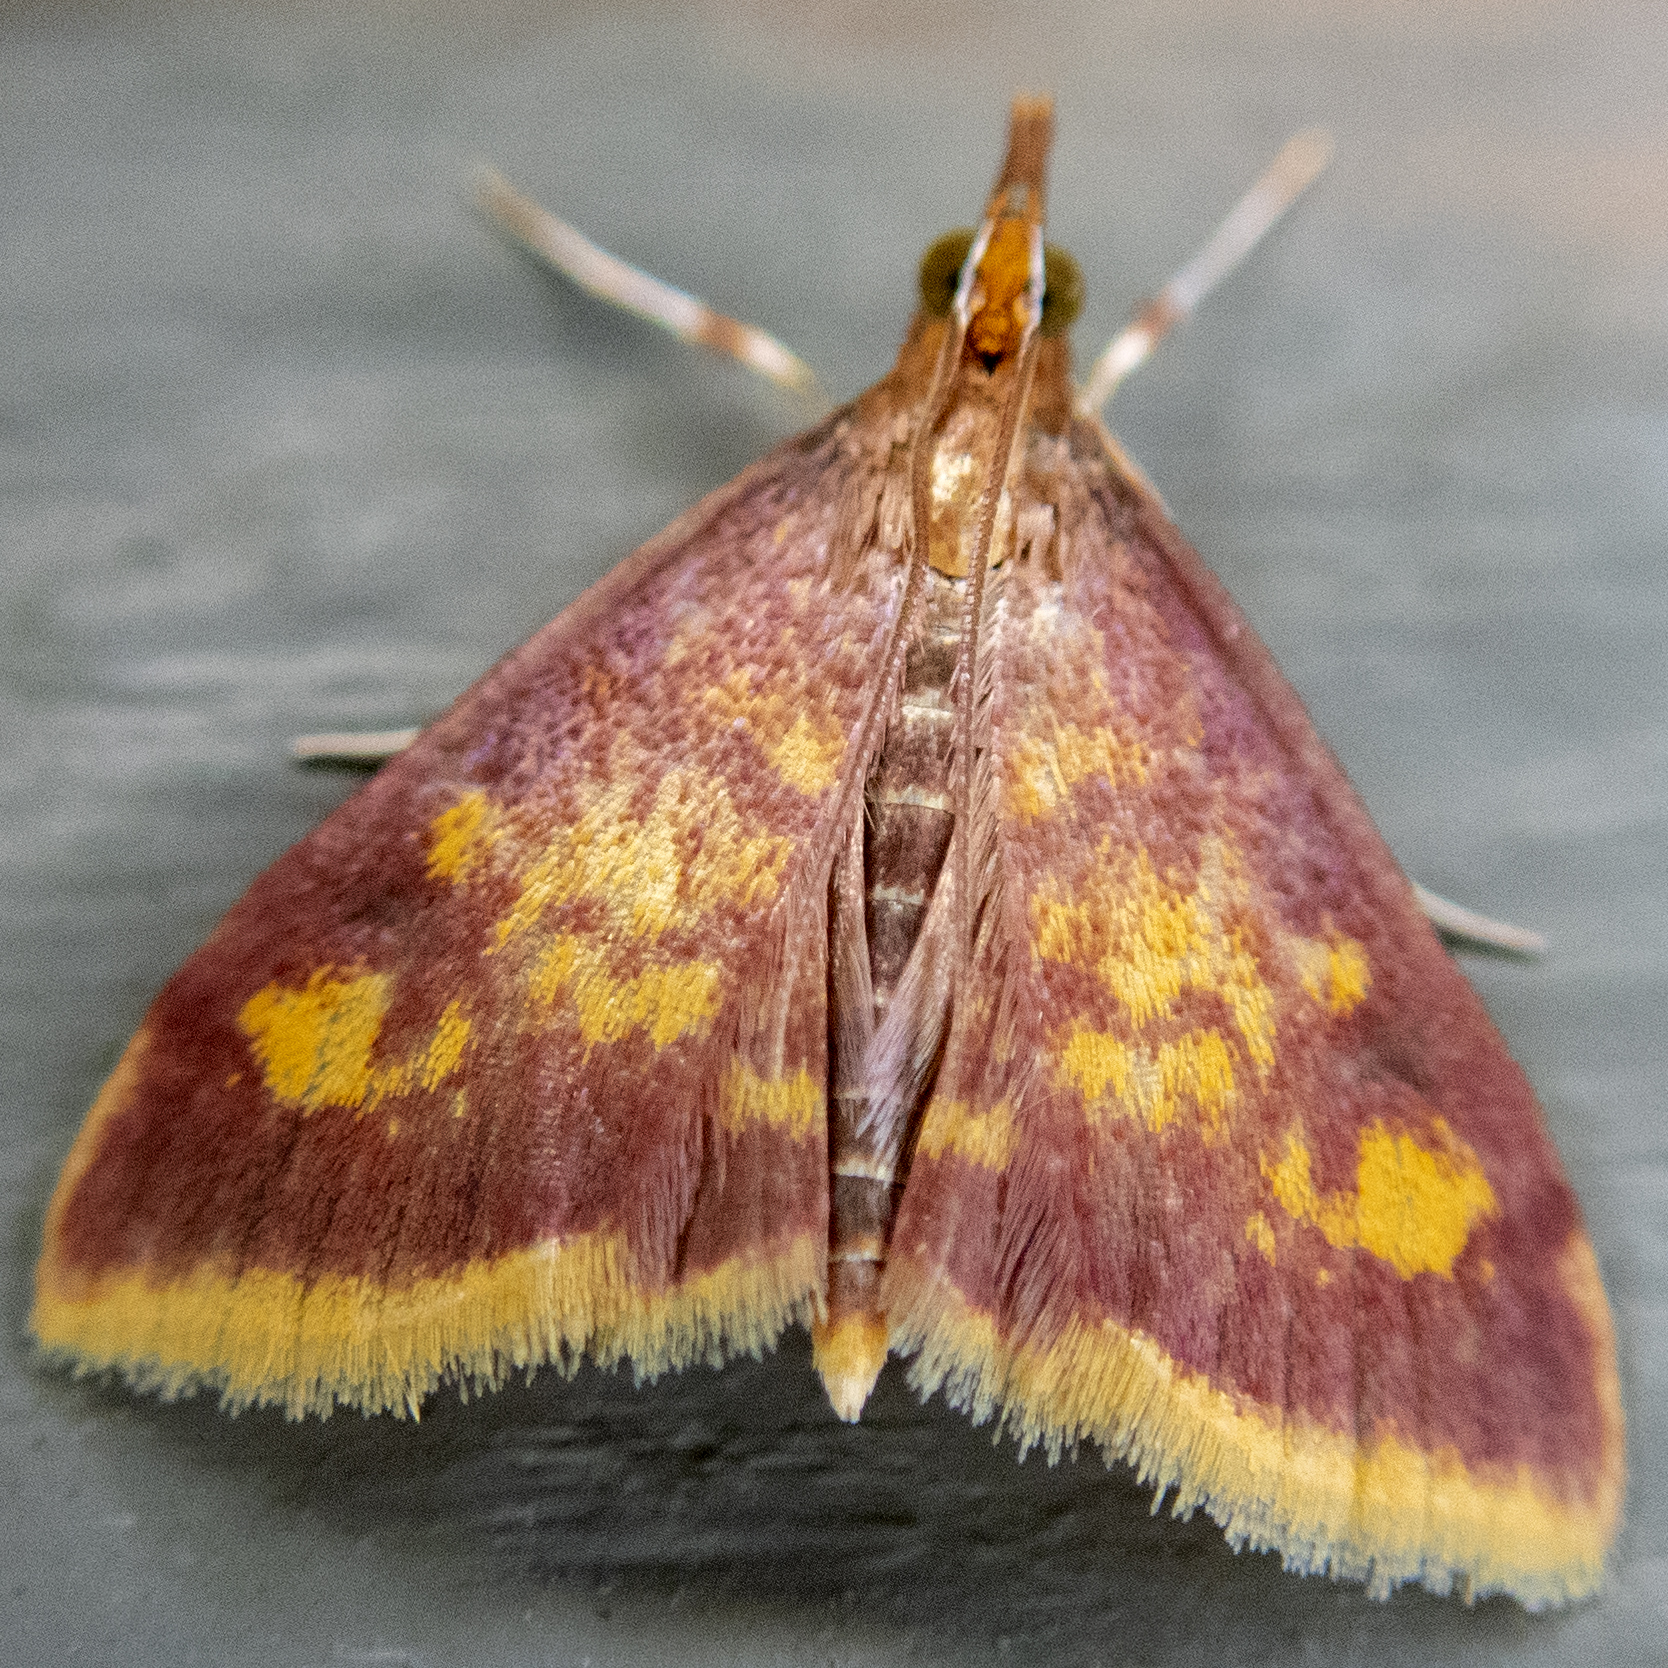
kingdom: Animalia
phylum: Arthropoda
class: Insecta
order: Lepidoptera
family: Crambidae
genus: Pyrausta
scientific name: Pyrausta acrionalis
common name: Mint-loving pyrausta moth
